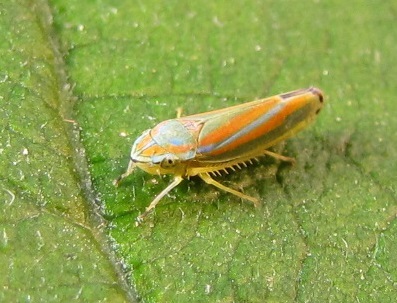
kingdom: Animalia
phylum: Arthropoda
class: Insecta
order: Hemiptera
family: Cicadellidae
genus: Graphocephala
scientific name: Graphocephala versuta
